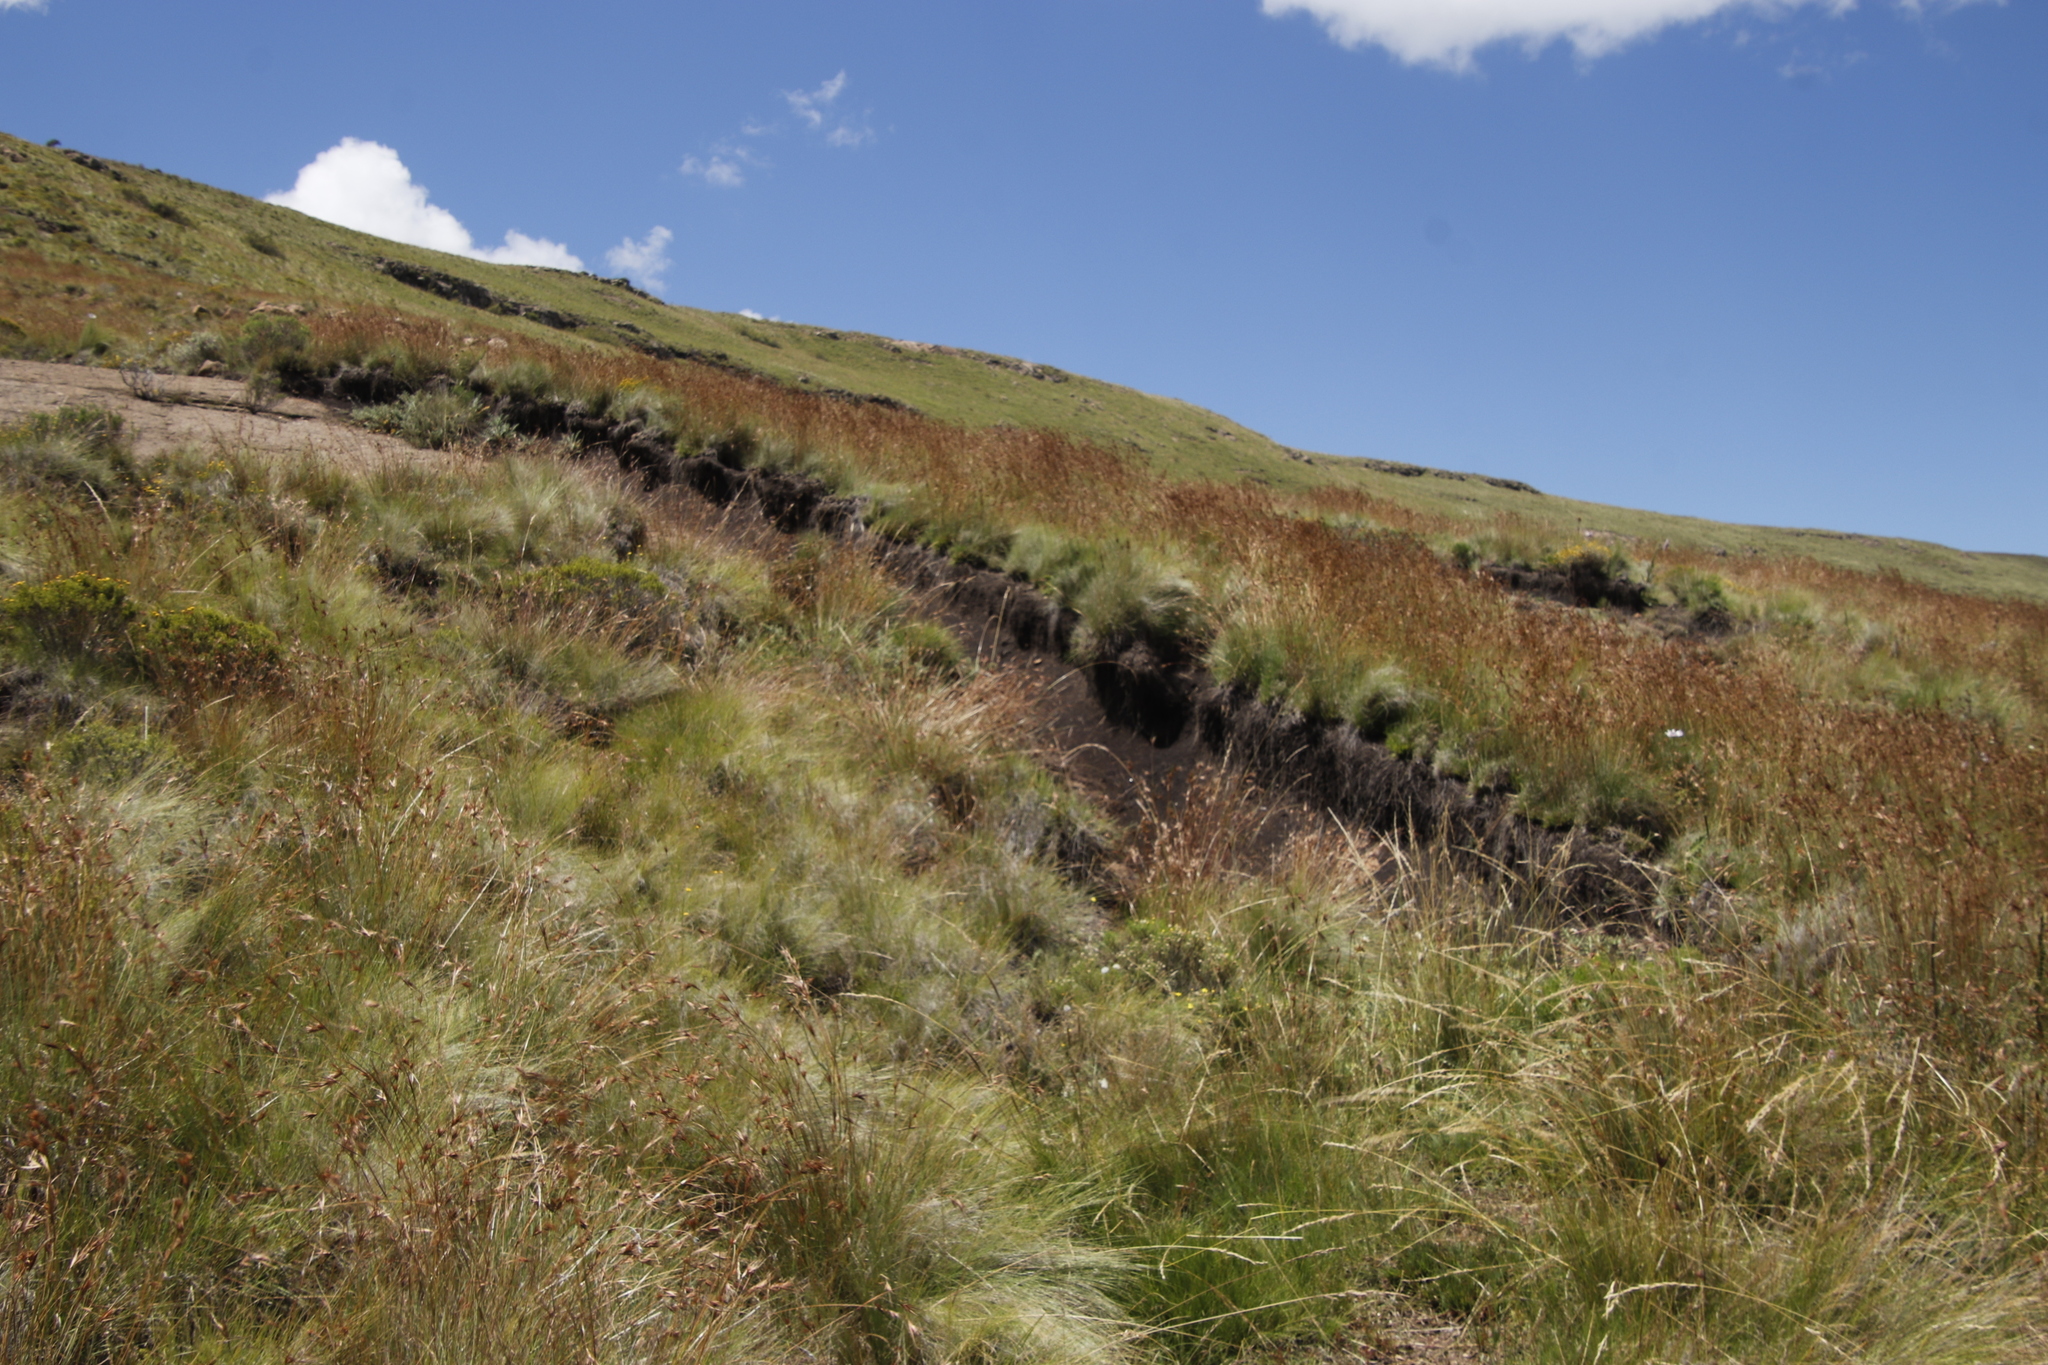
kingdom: Plantae
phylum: Tracheophyta
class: Liliopsida
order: Poales
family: Poaceae
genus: Themeda
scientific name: Themeda triandra
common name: Kangaroo grass
